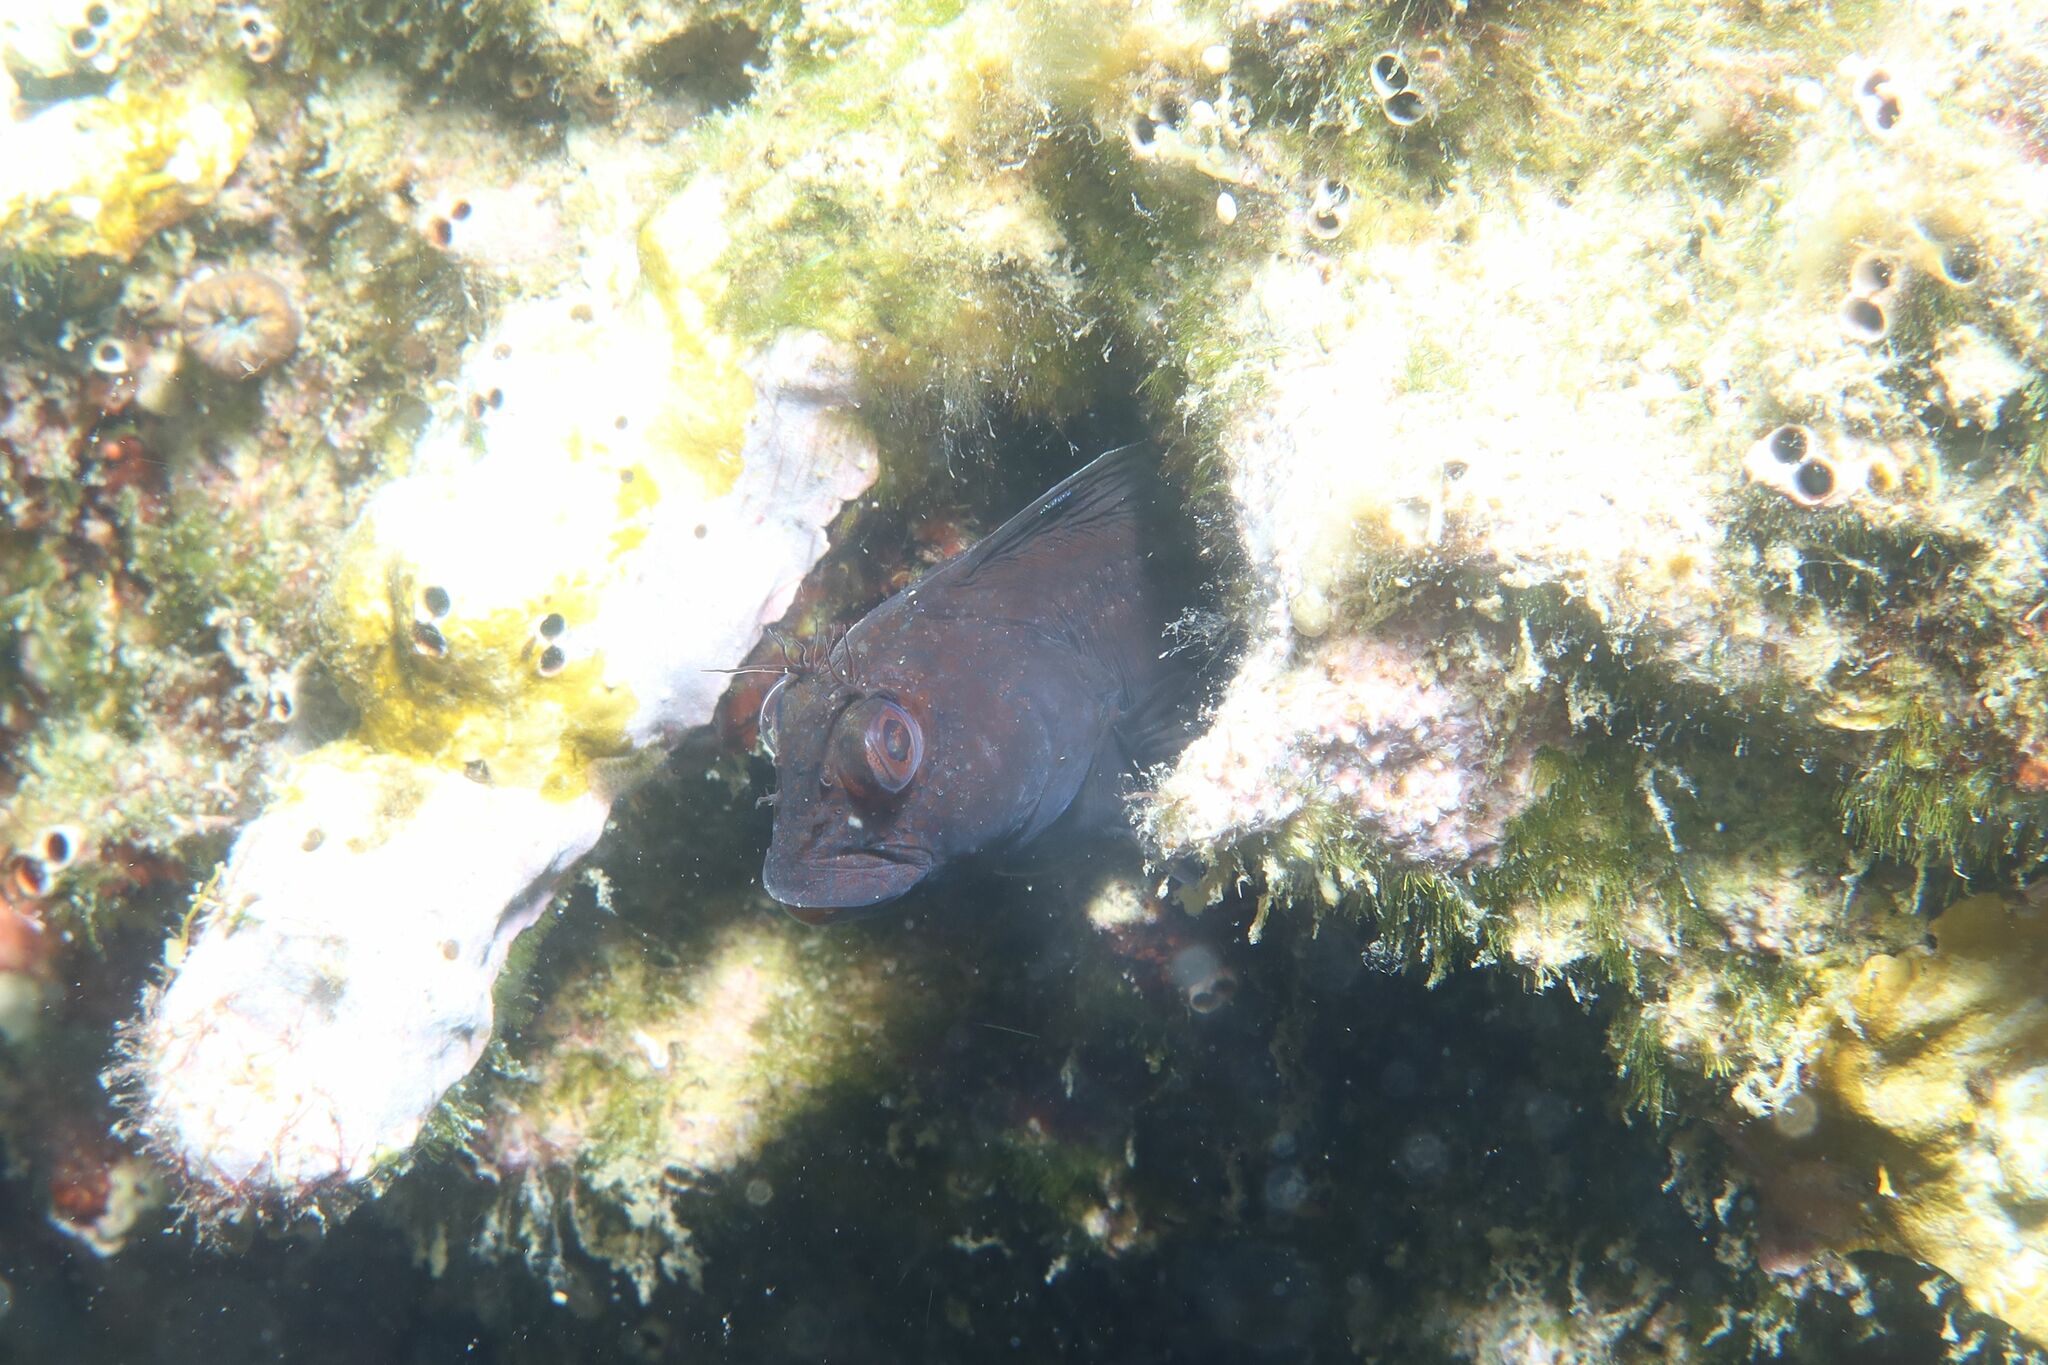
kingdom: Animalia
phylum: Chordata
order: Perciformes
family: Blenniidae
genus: Parablennius
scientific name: Parablennius pilicornis
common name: Ringneck blenny
